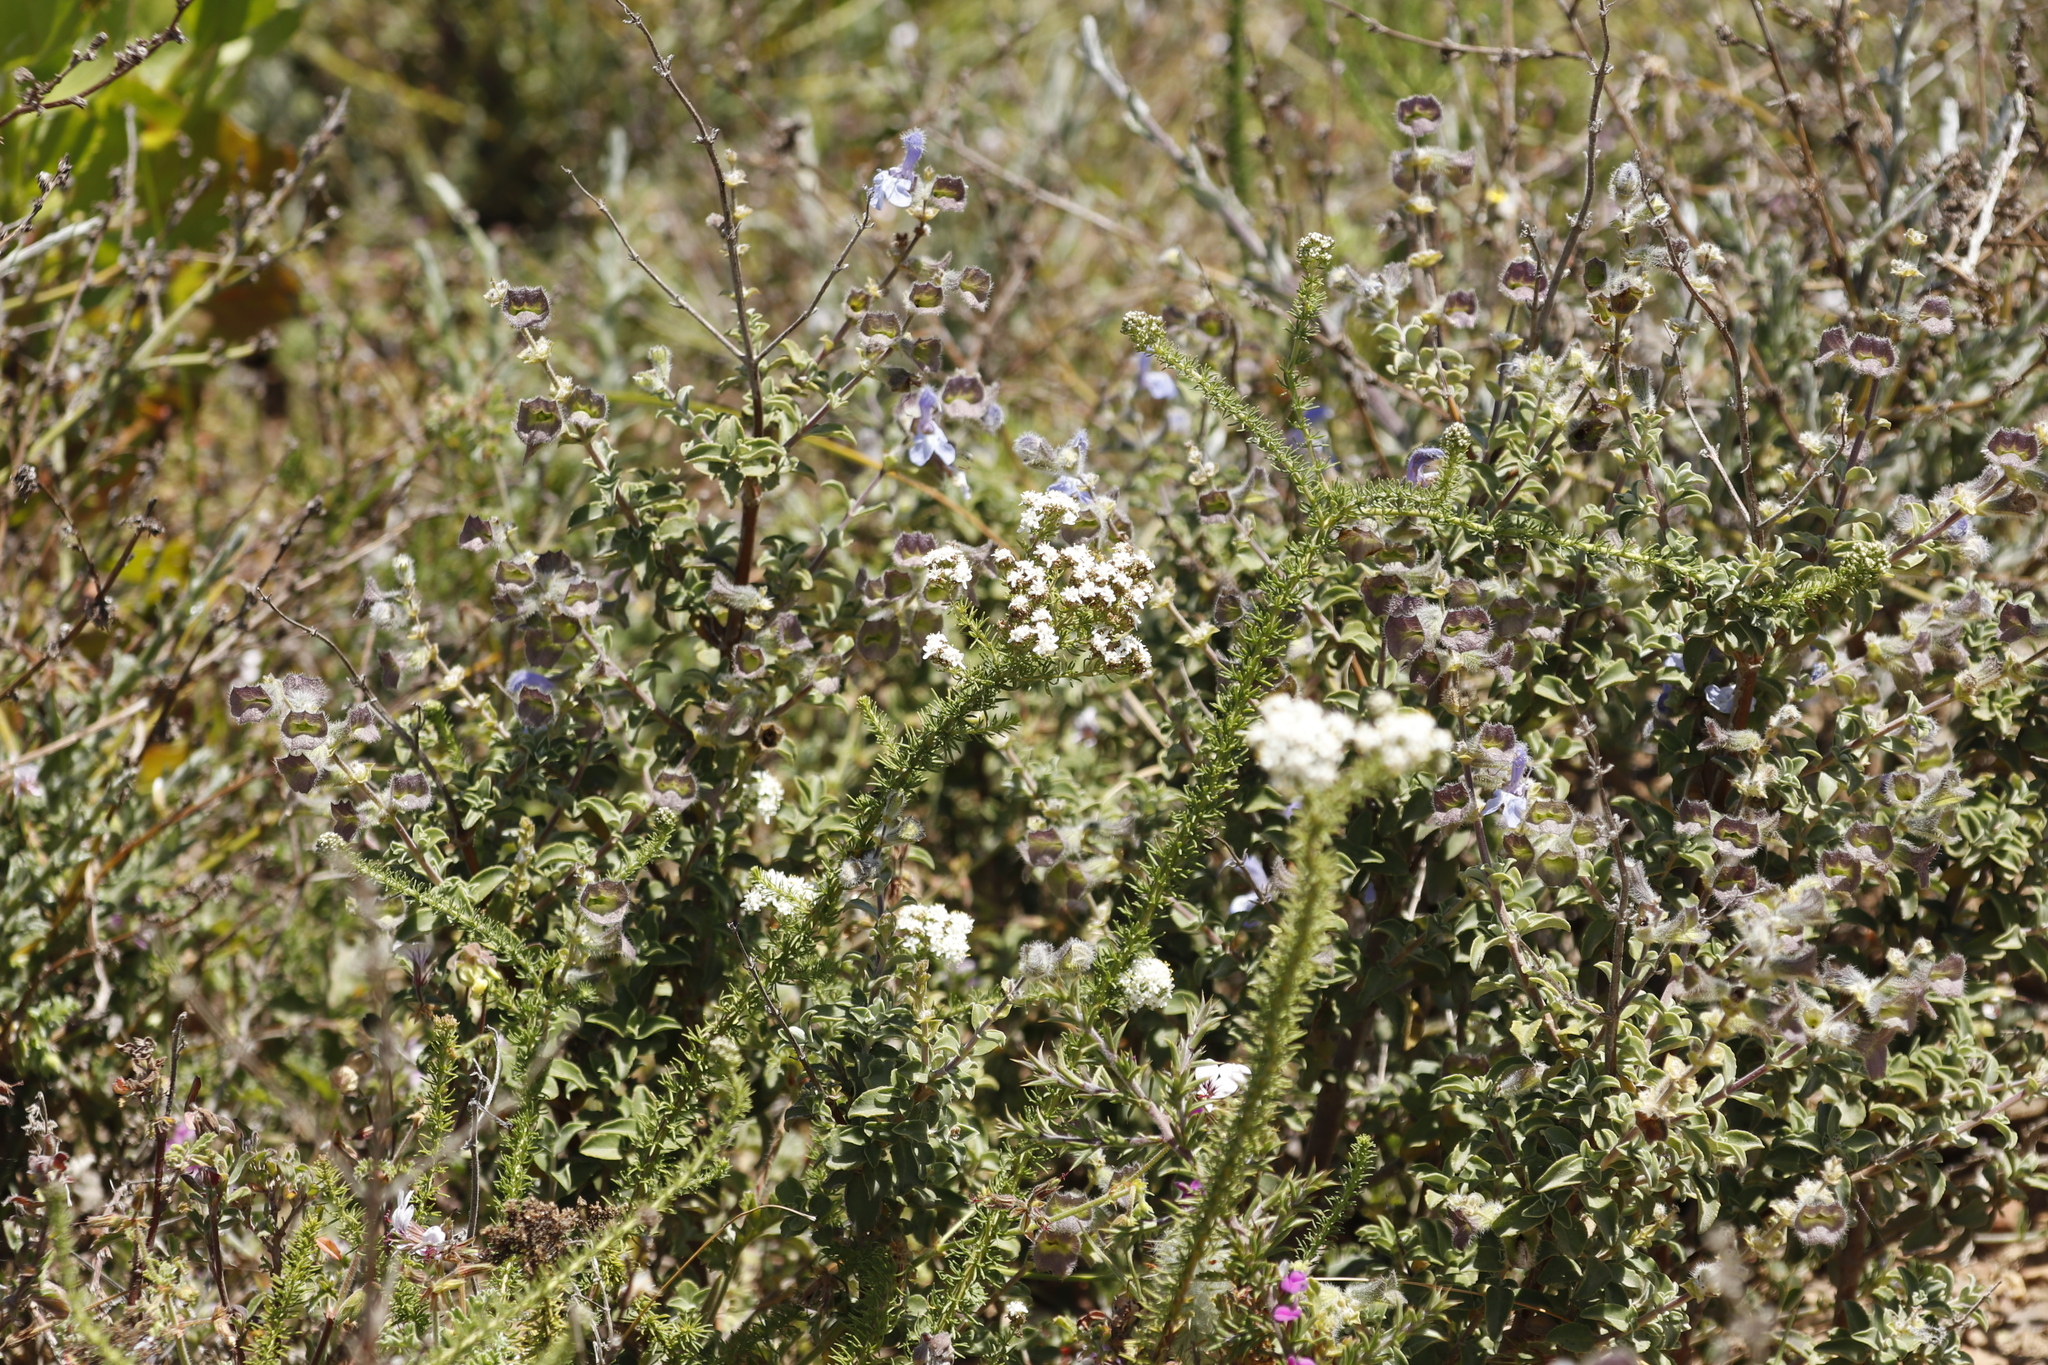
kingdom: Plantae
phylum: Tracheophyta
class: Magnoliopsida
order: Lamiales
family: Lamiaceae
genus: Salvia
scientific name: Salvia africana
